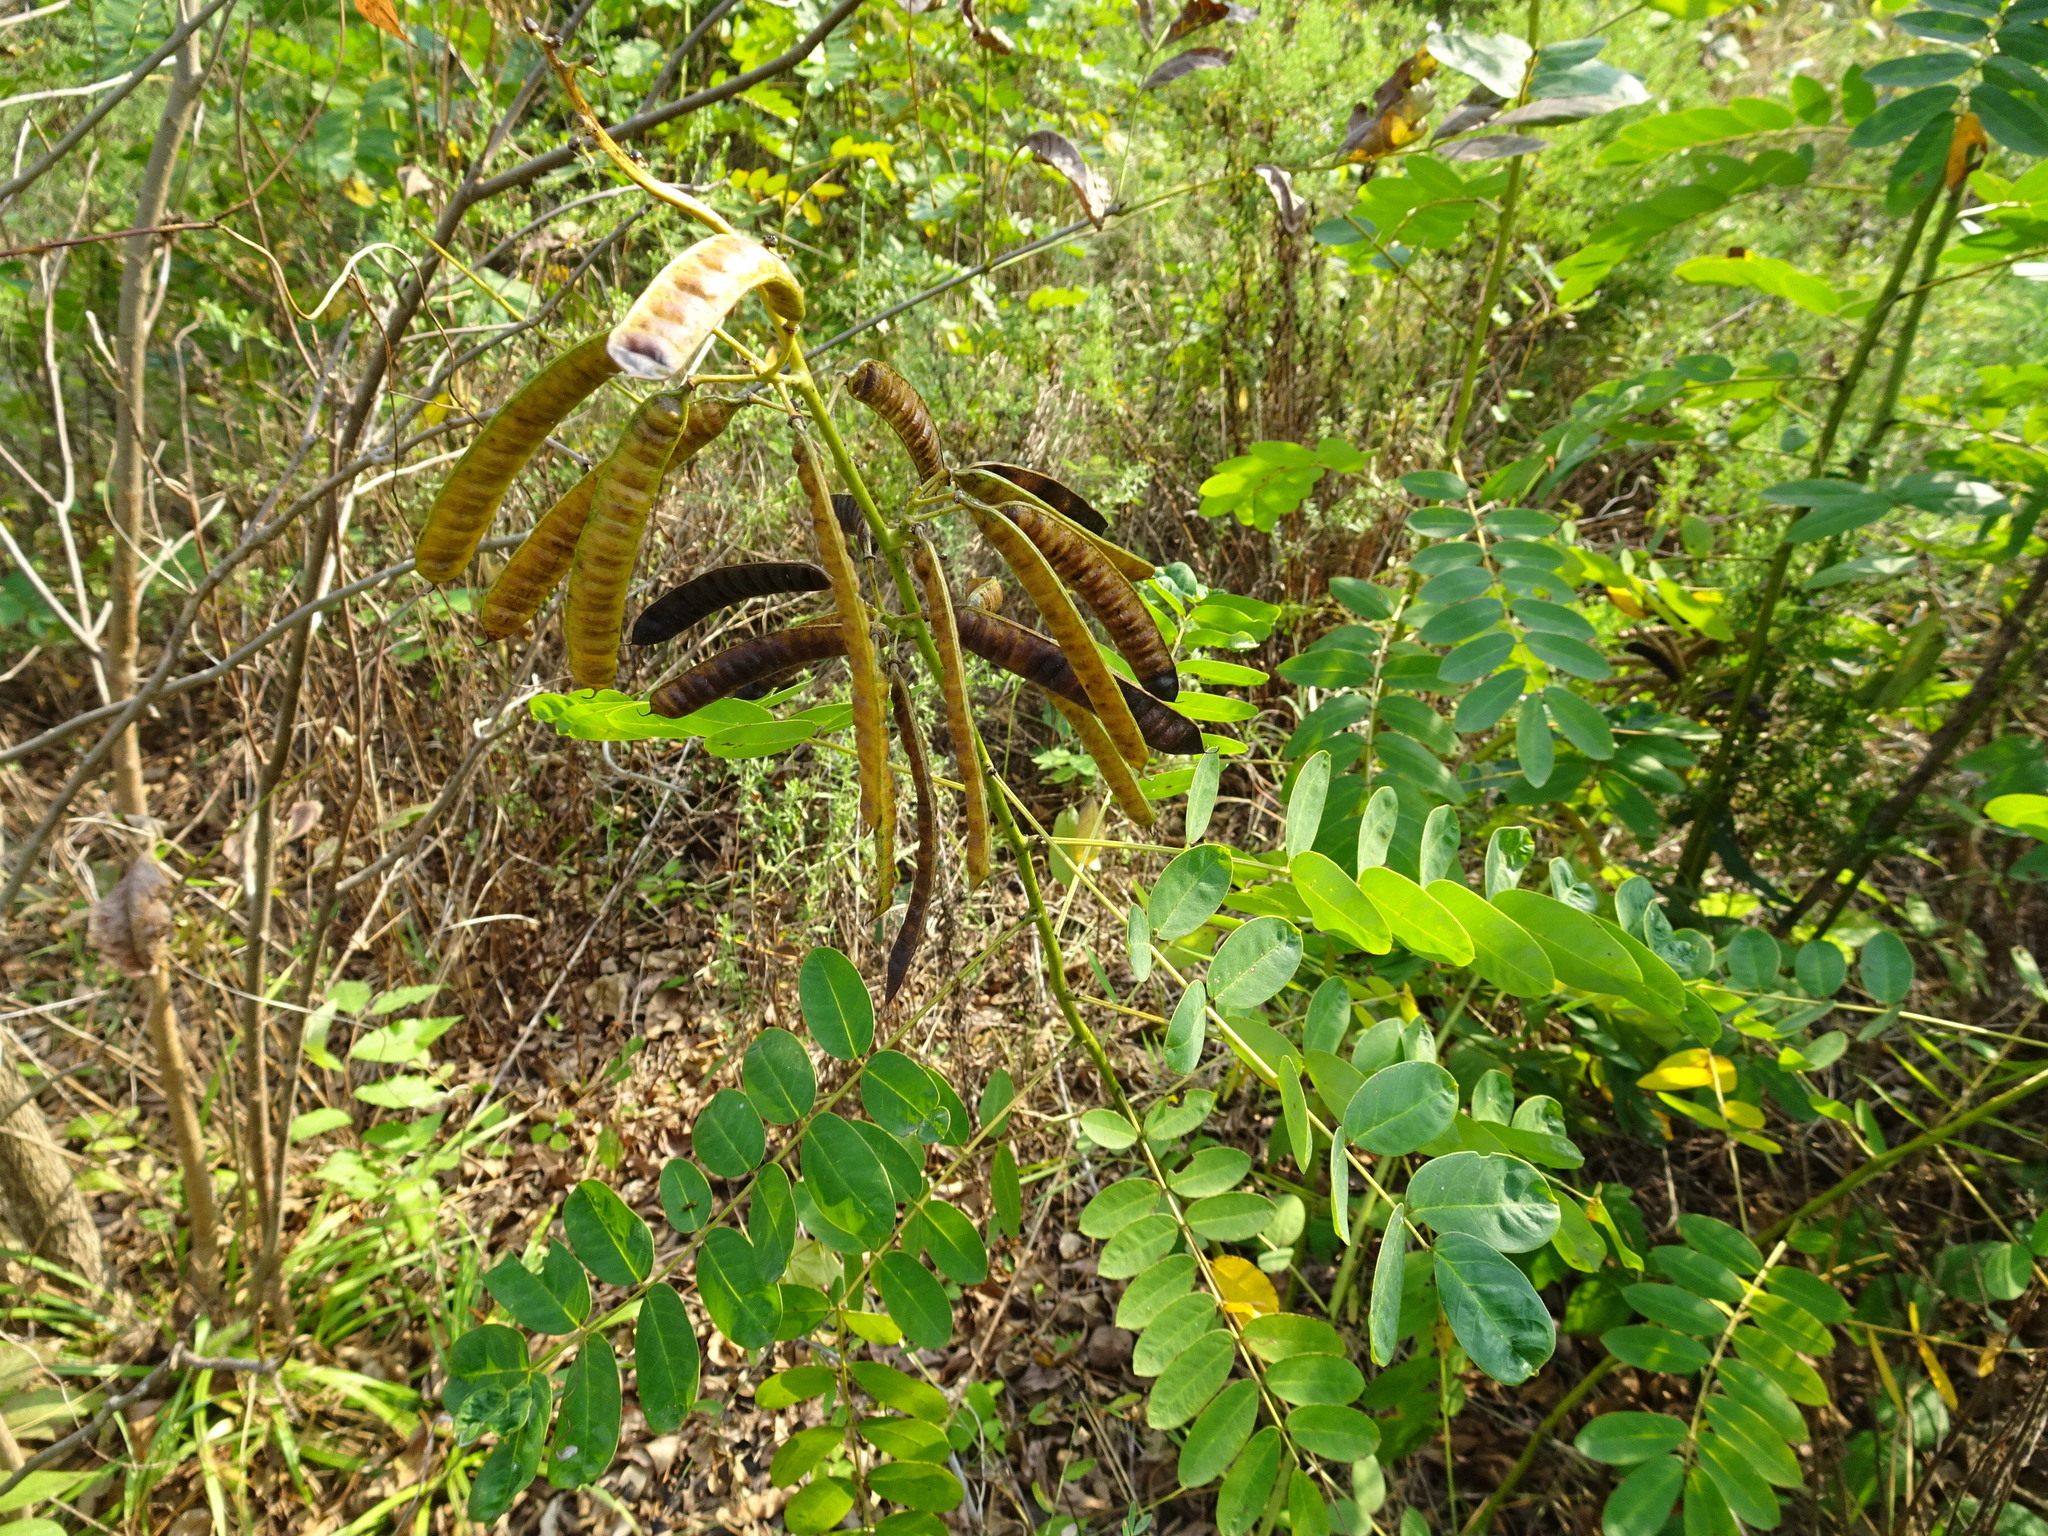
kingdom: Plantae
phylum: Tracheophyta
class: Magnoliopsida
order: Fabales
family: Fabaceae
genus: Senna
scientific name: Senna marilandica
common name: American senna
